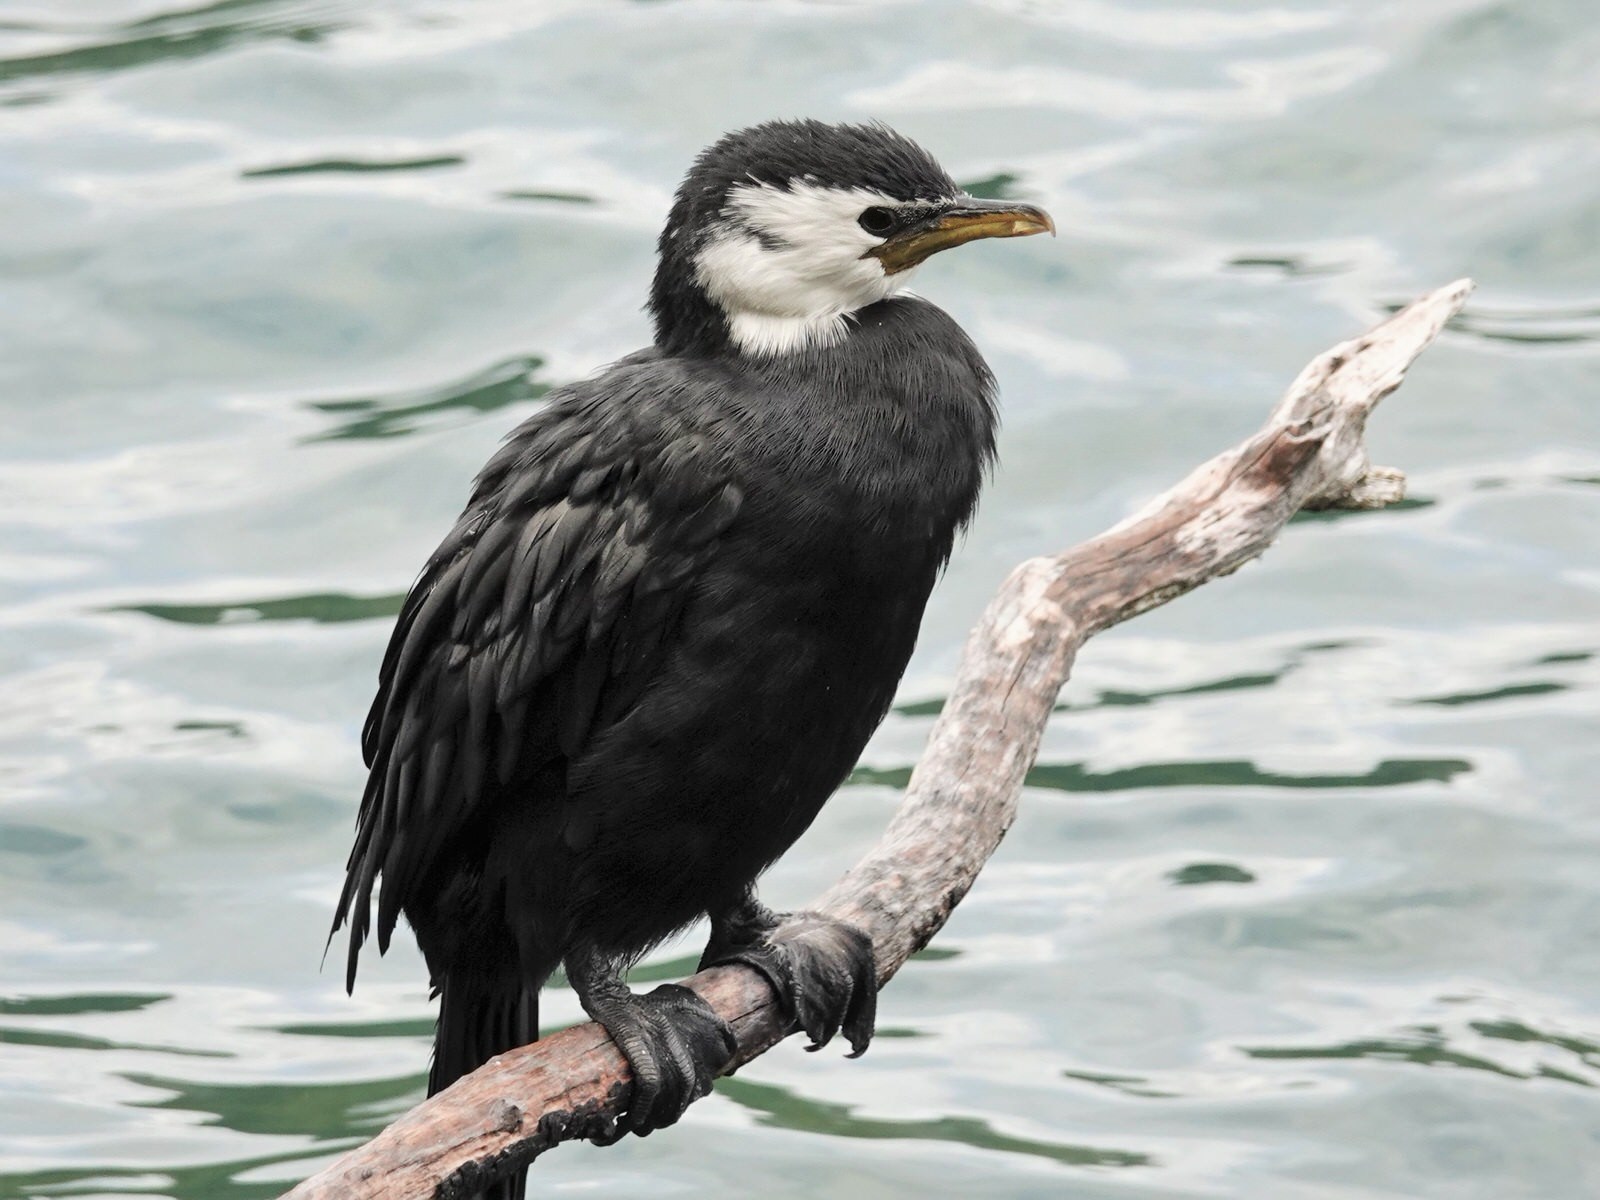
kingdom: Animalia
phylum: Chordata
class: Aves
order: Suliformes
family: Phalacrocoracidae
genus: Microcarbo
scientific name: Microcarbo melanoleucos
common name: Little pied cormorant
